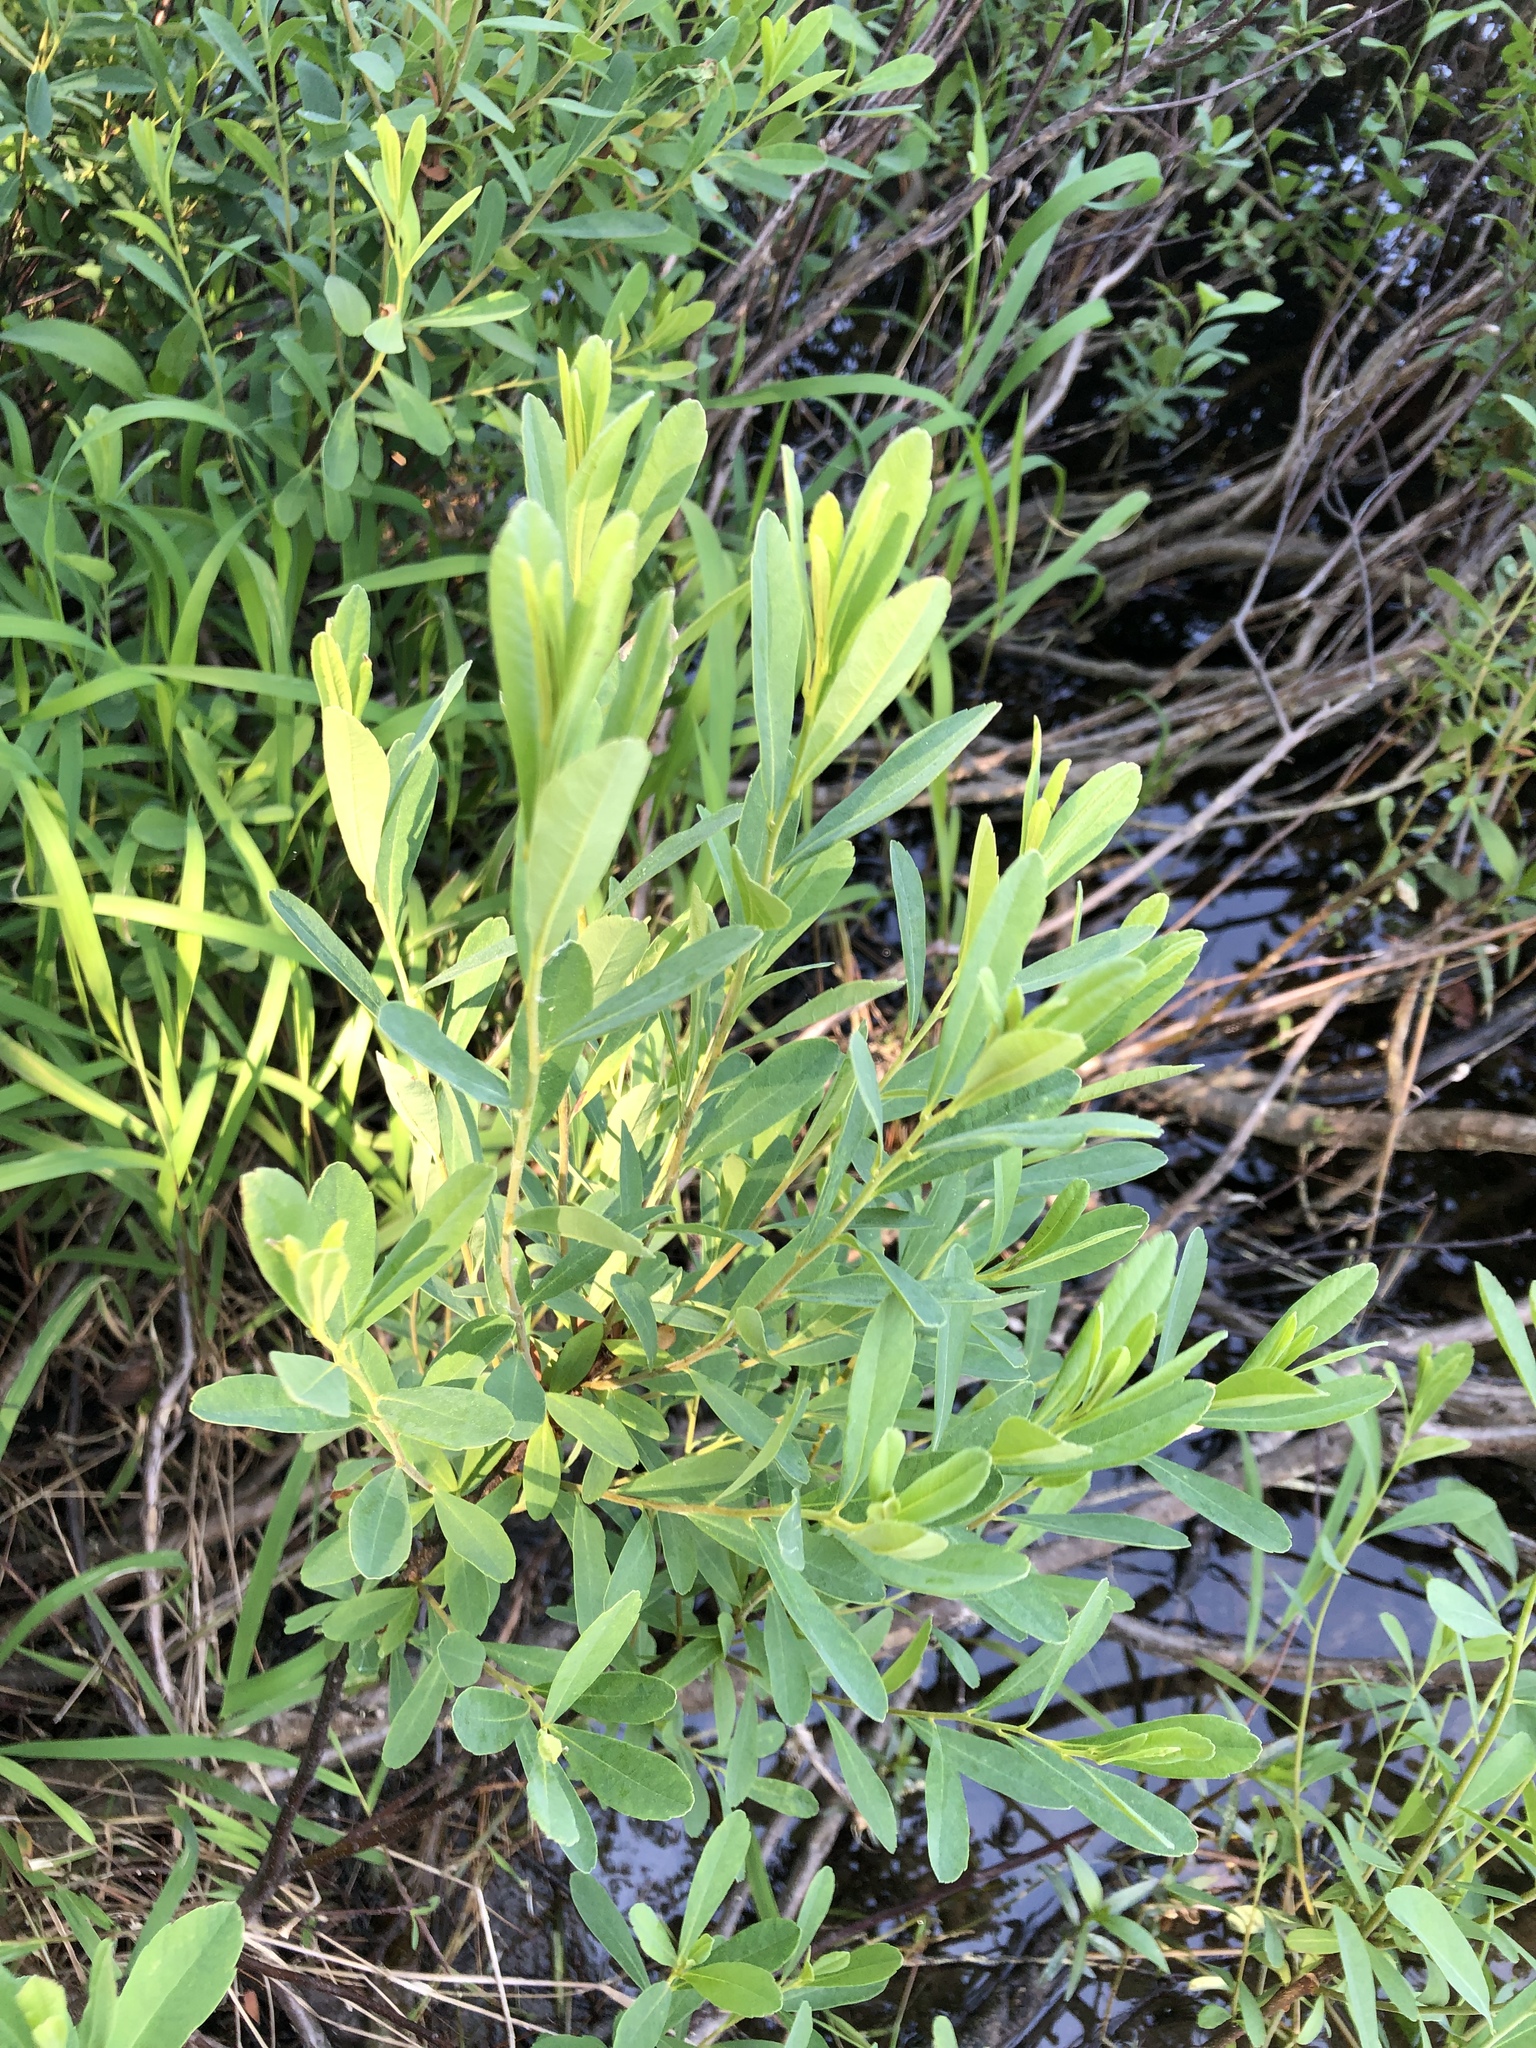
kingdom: Plantae
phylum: Tracheophyta
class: Magnoliopsida
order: Fagales
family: Myricaceae
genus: Myrica
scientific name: Myrica gale
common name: Sweet gale
